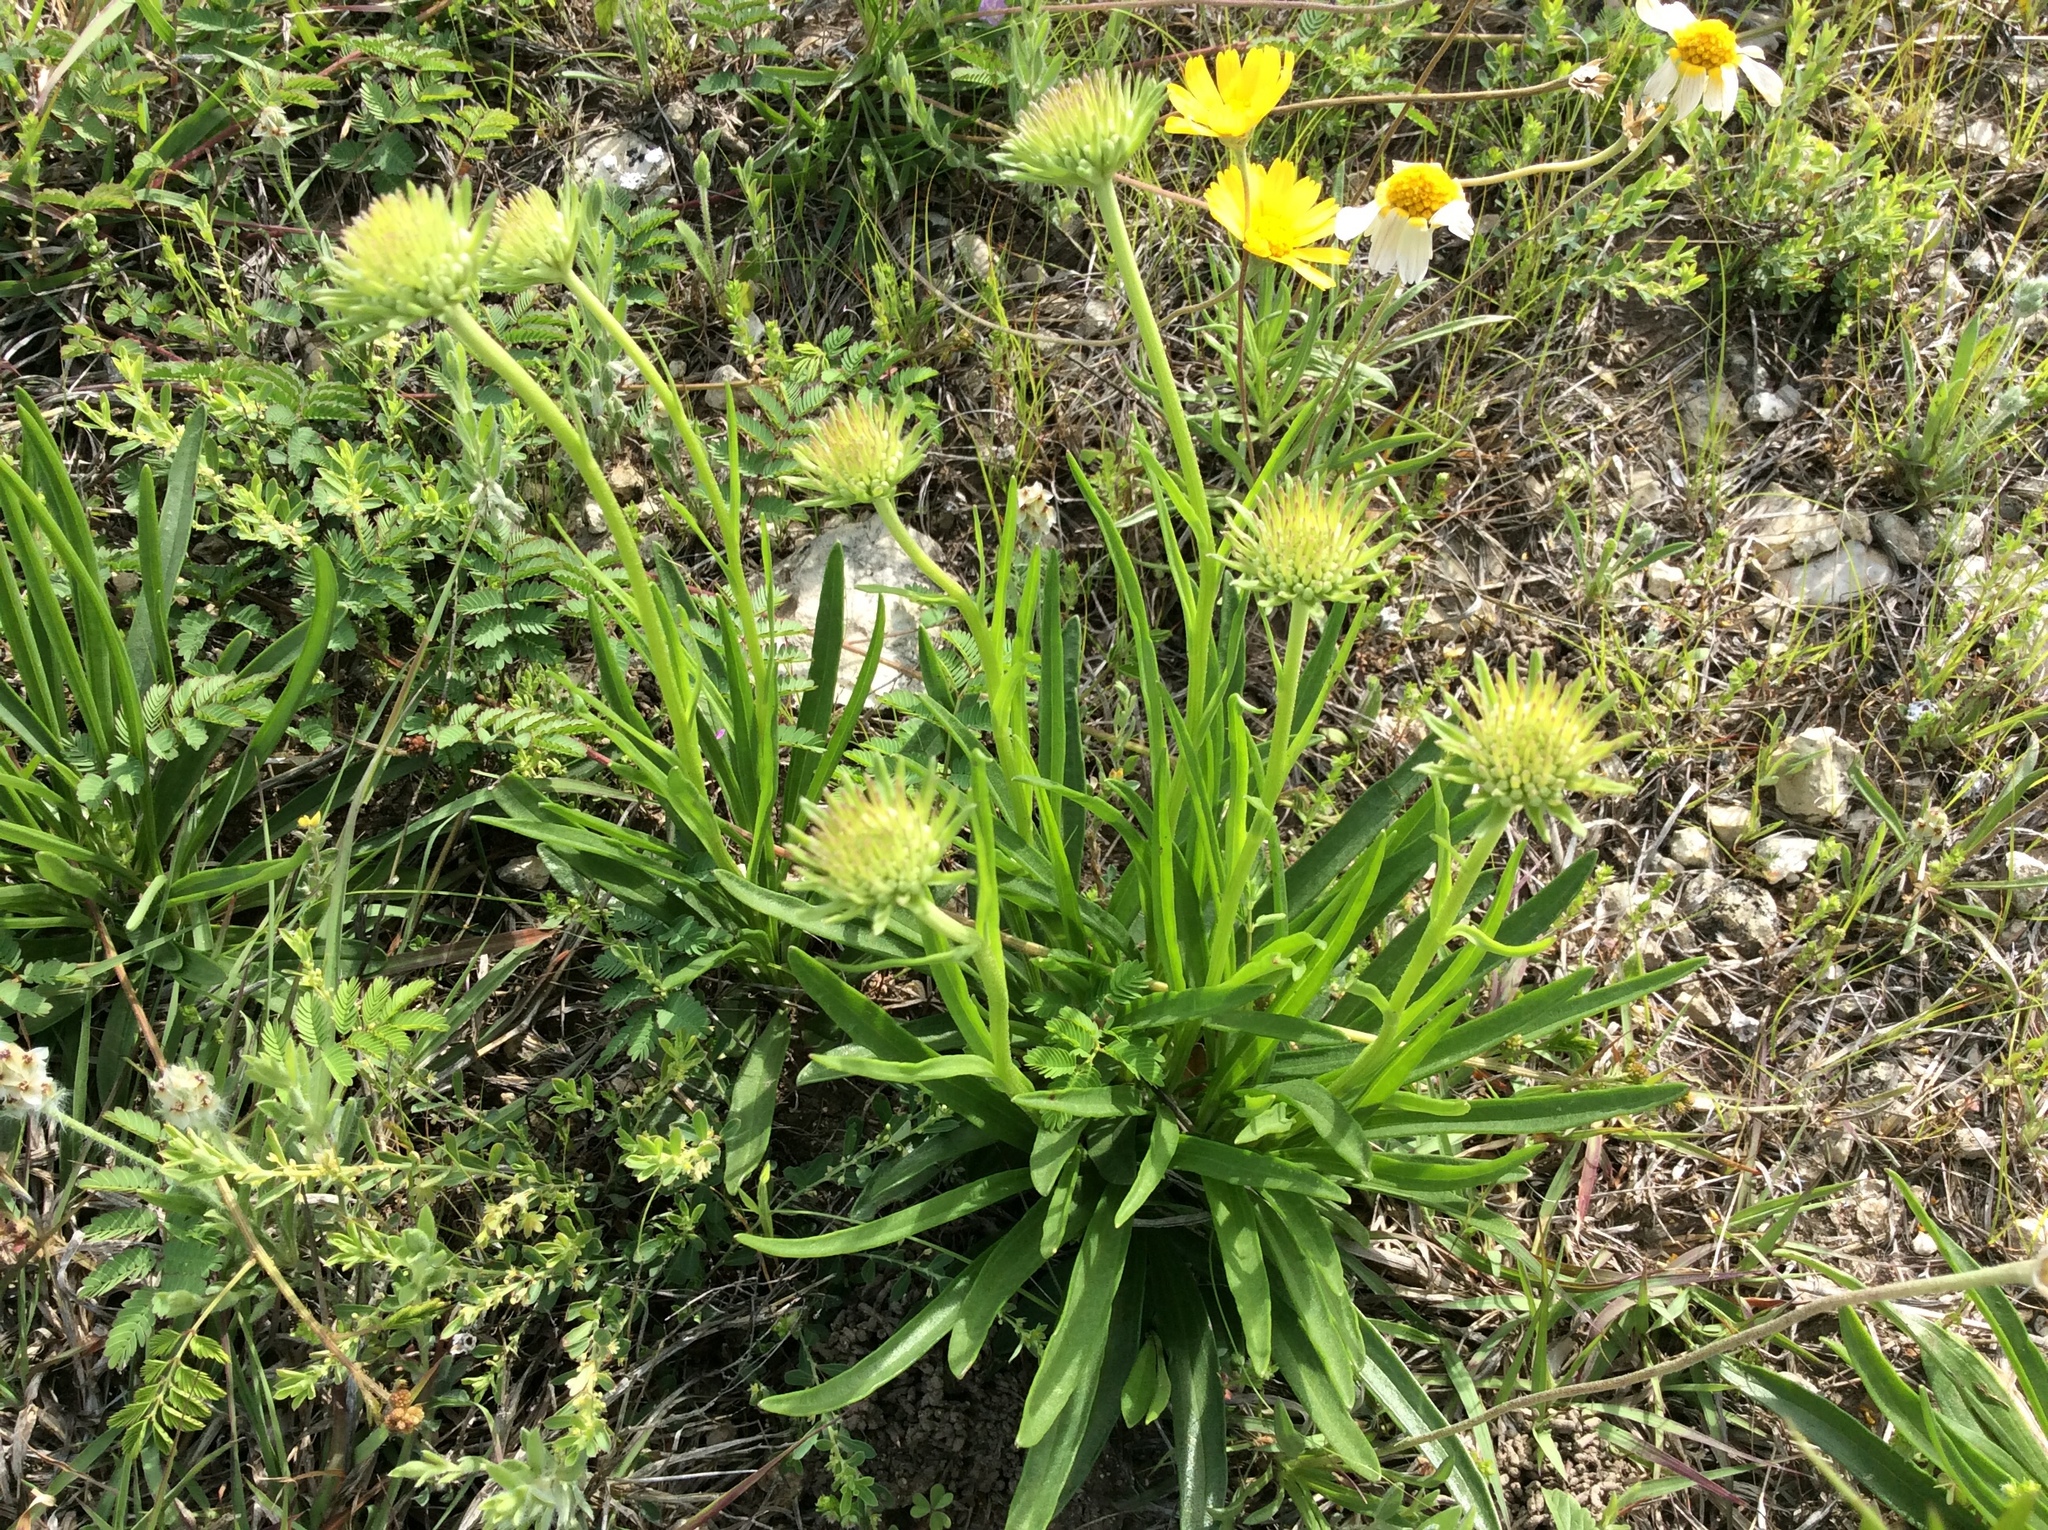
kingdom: Plantae
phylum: Tracheophyta
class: Magnoliopsida
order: Asterales
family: Asteraceae
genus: Marshallia
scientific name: Marshallia caespitosa
